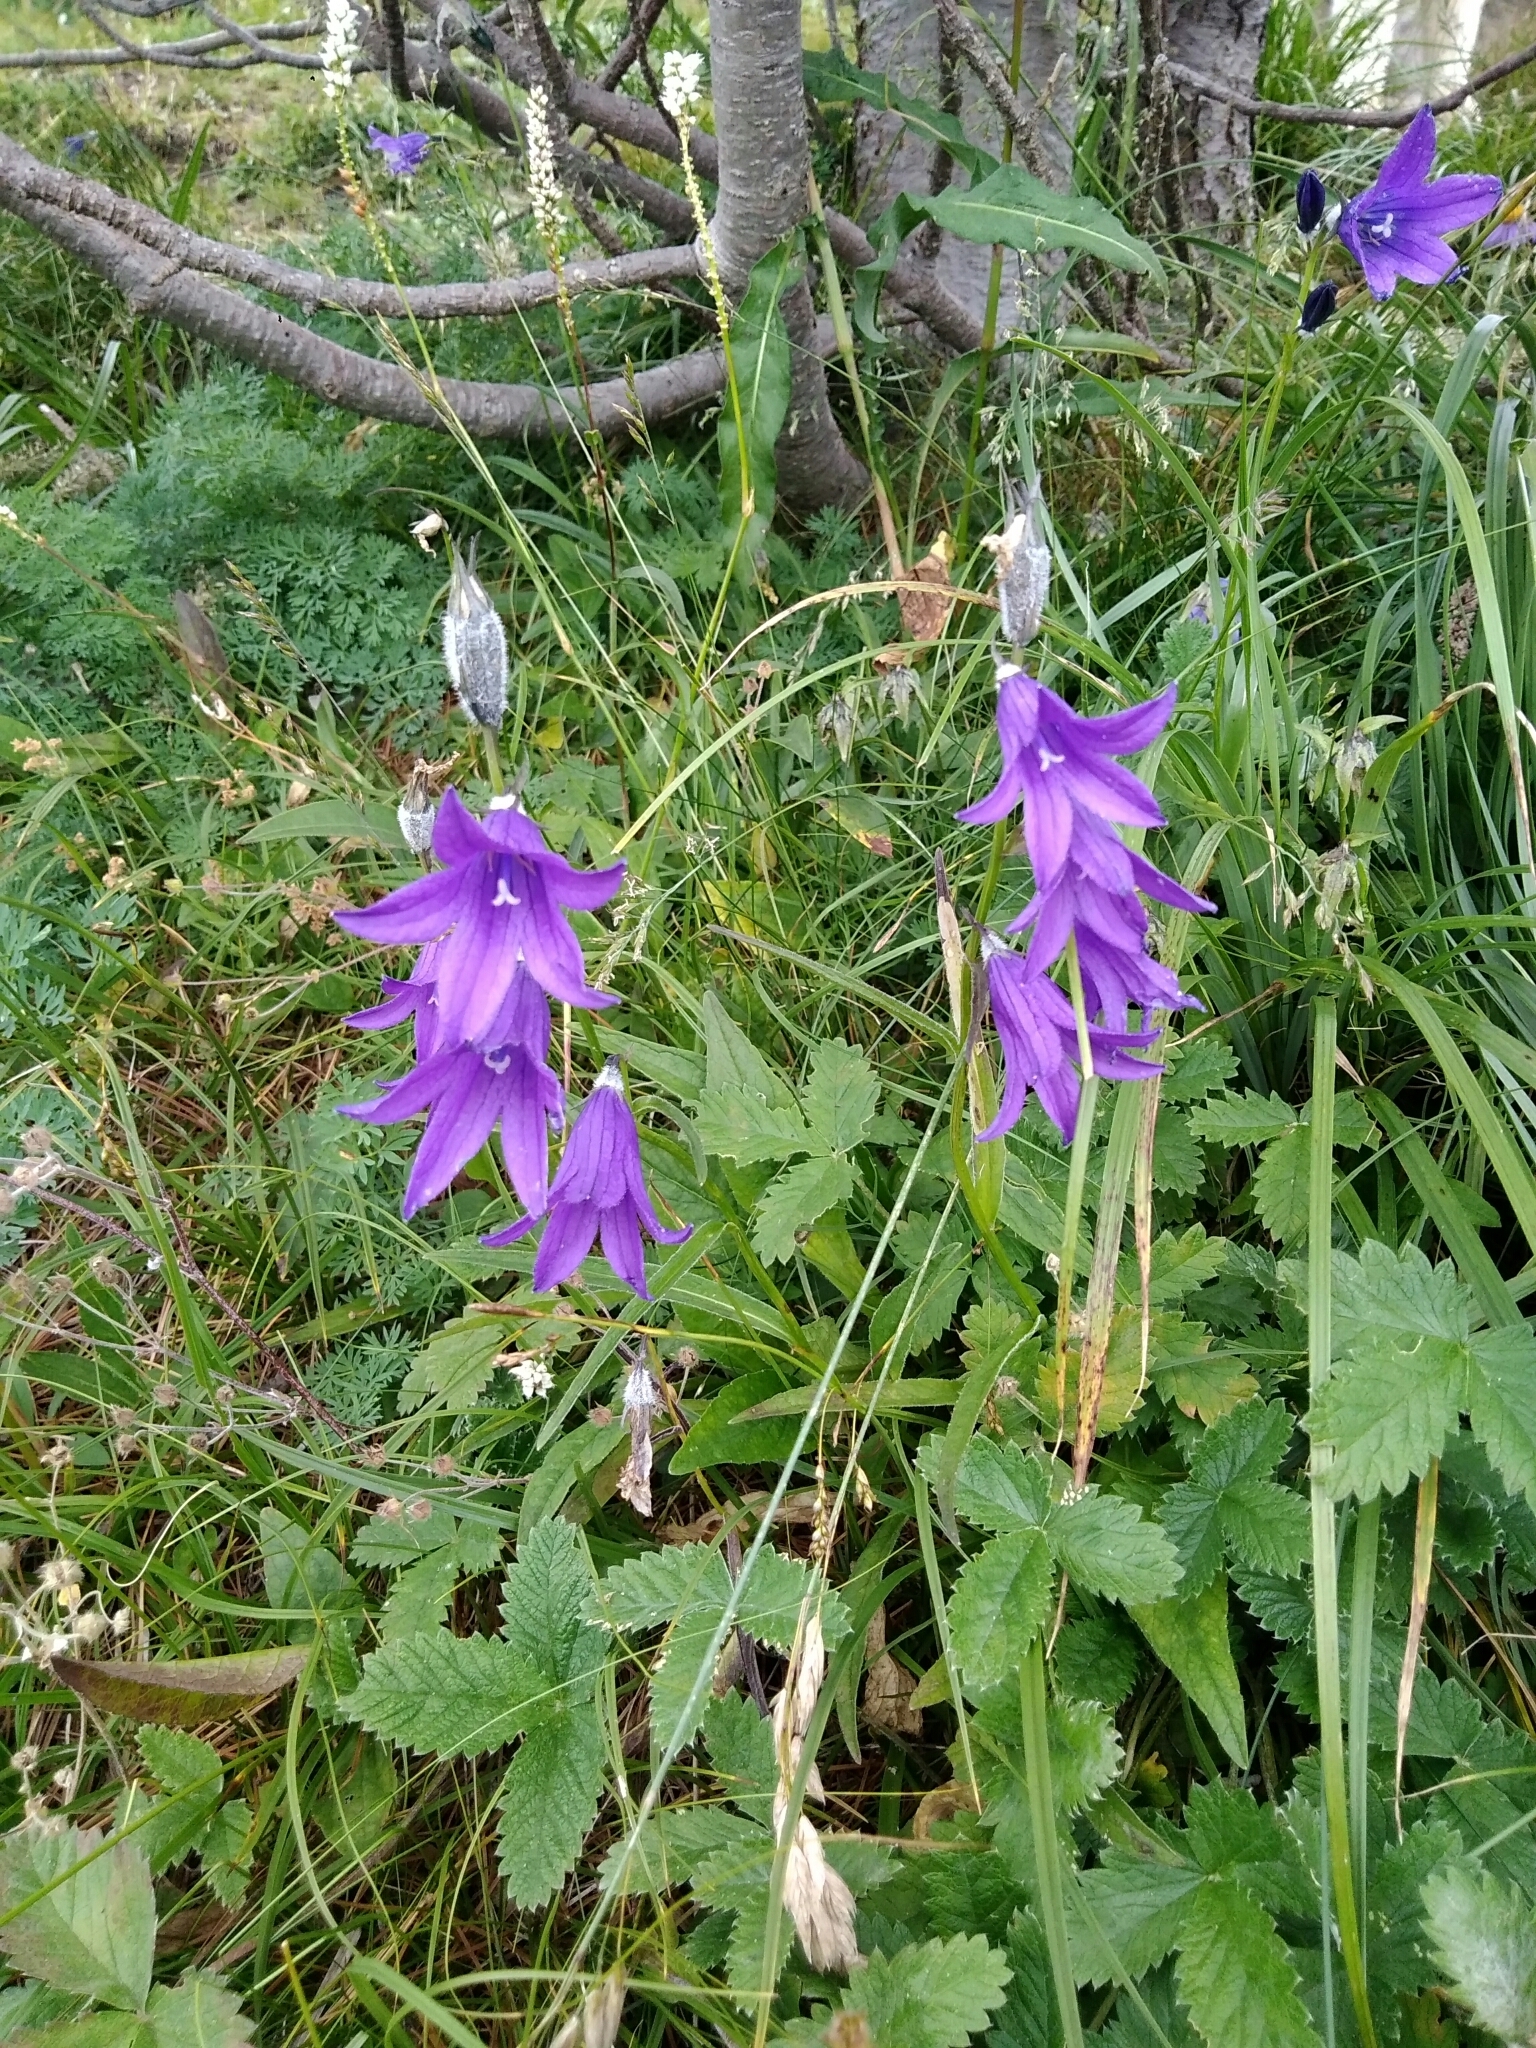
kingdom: Plantae
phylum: Tracheophyta
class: Magnoliopsida
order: Asterales
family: Campanulaceae
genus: Campanula
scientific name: Campanula stevenii
